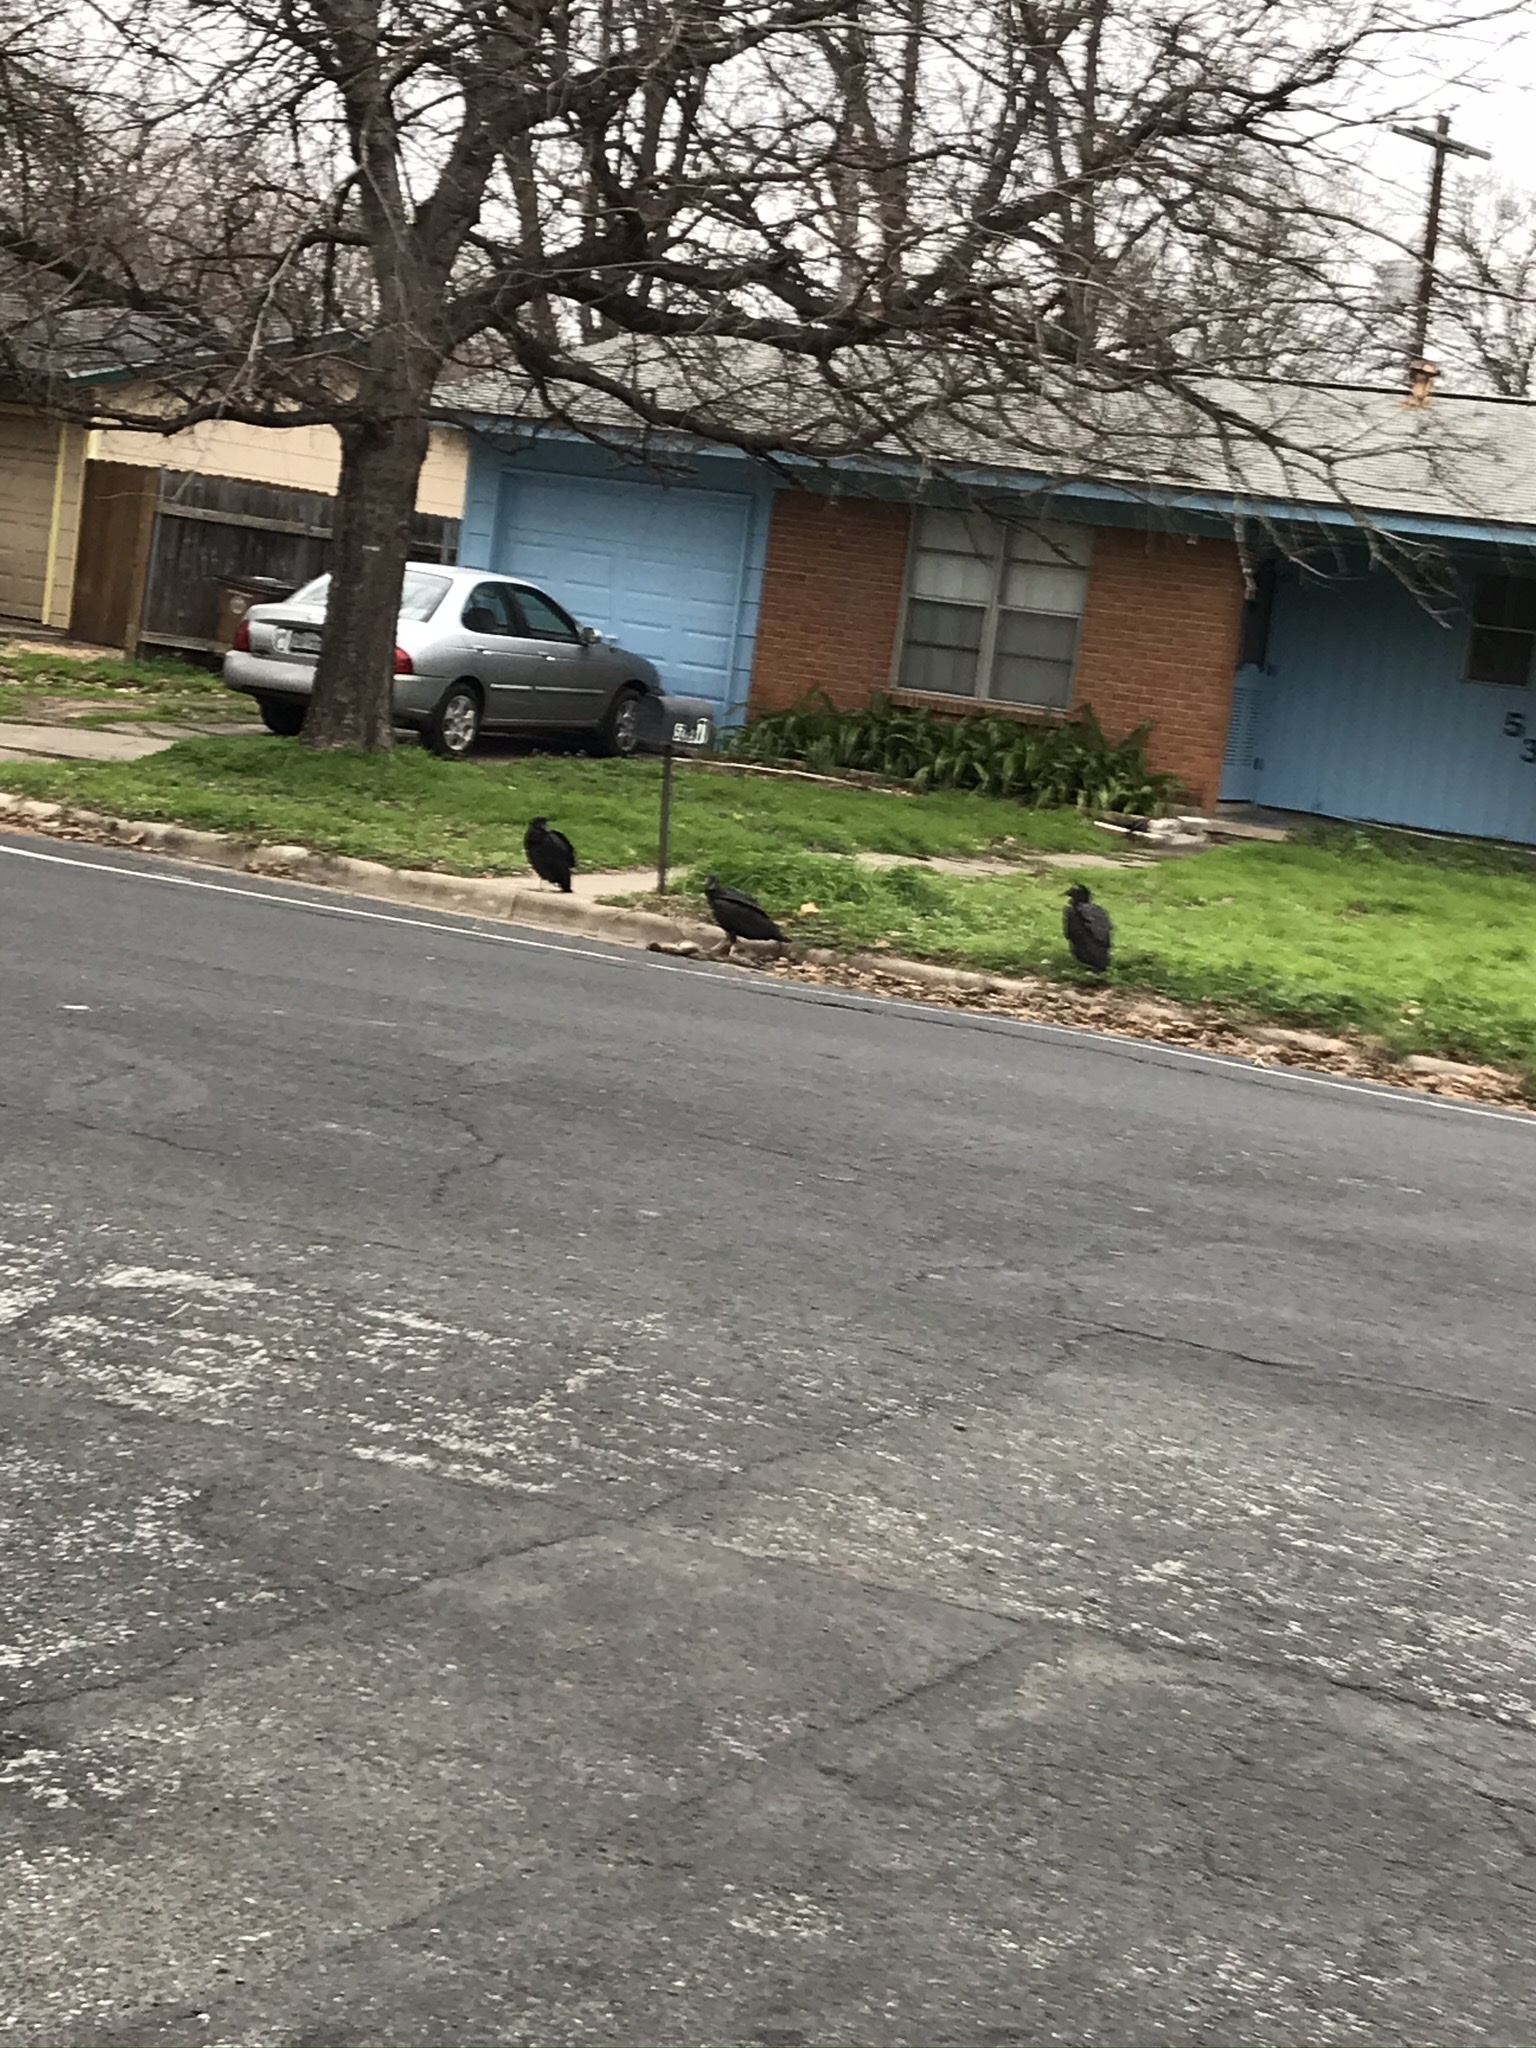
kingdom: Animalia
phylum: Chordata
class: Aves
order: Accipitriformes
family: Cathartidae
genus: Coragyps
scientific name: Coragyps atratus
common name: Black vulture
